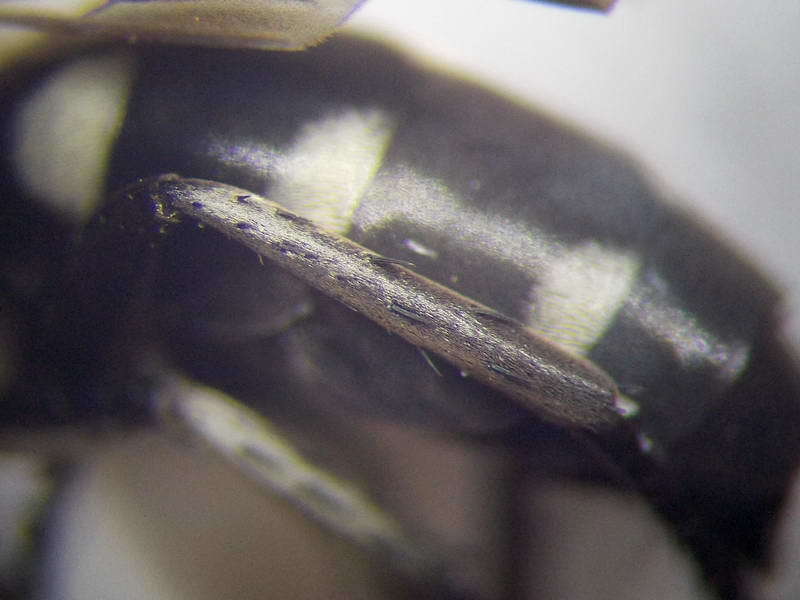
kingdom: Animalia
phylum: Arthropoda
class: Insecta
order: Hymenoptera
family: Pompilidae
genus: Aporinellus
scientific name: Aporinellus sexmaculatus
